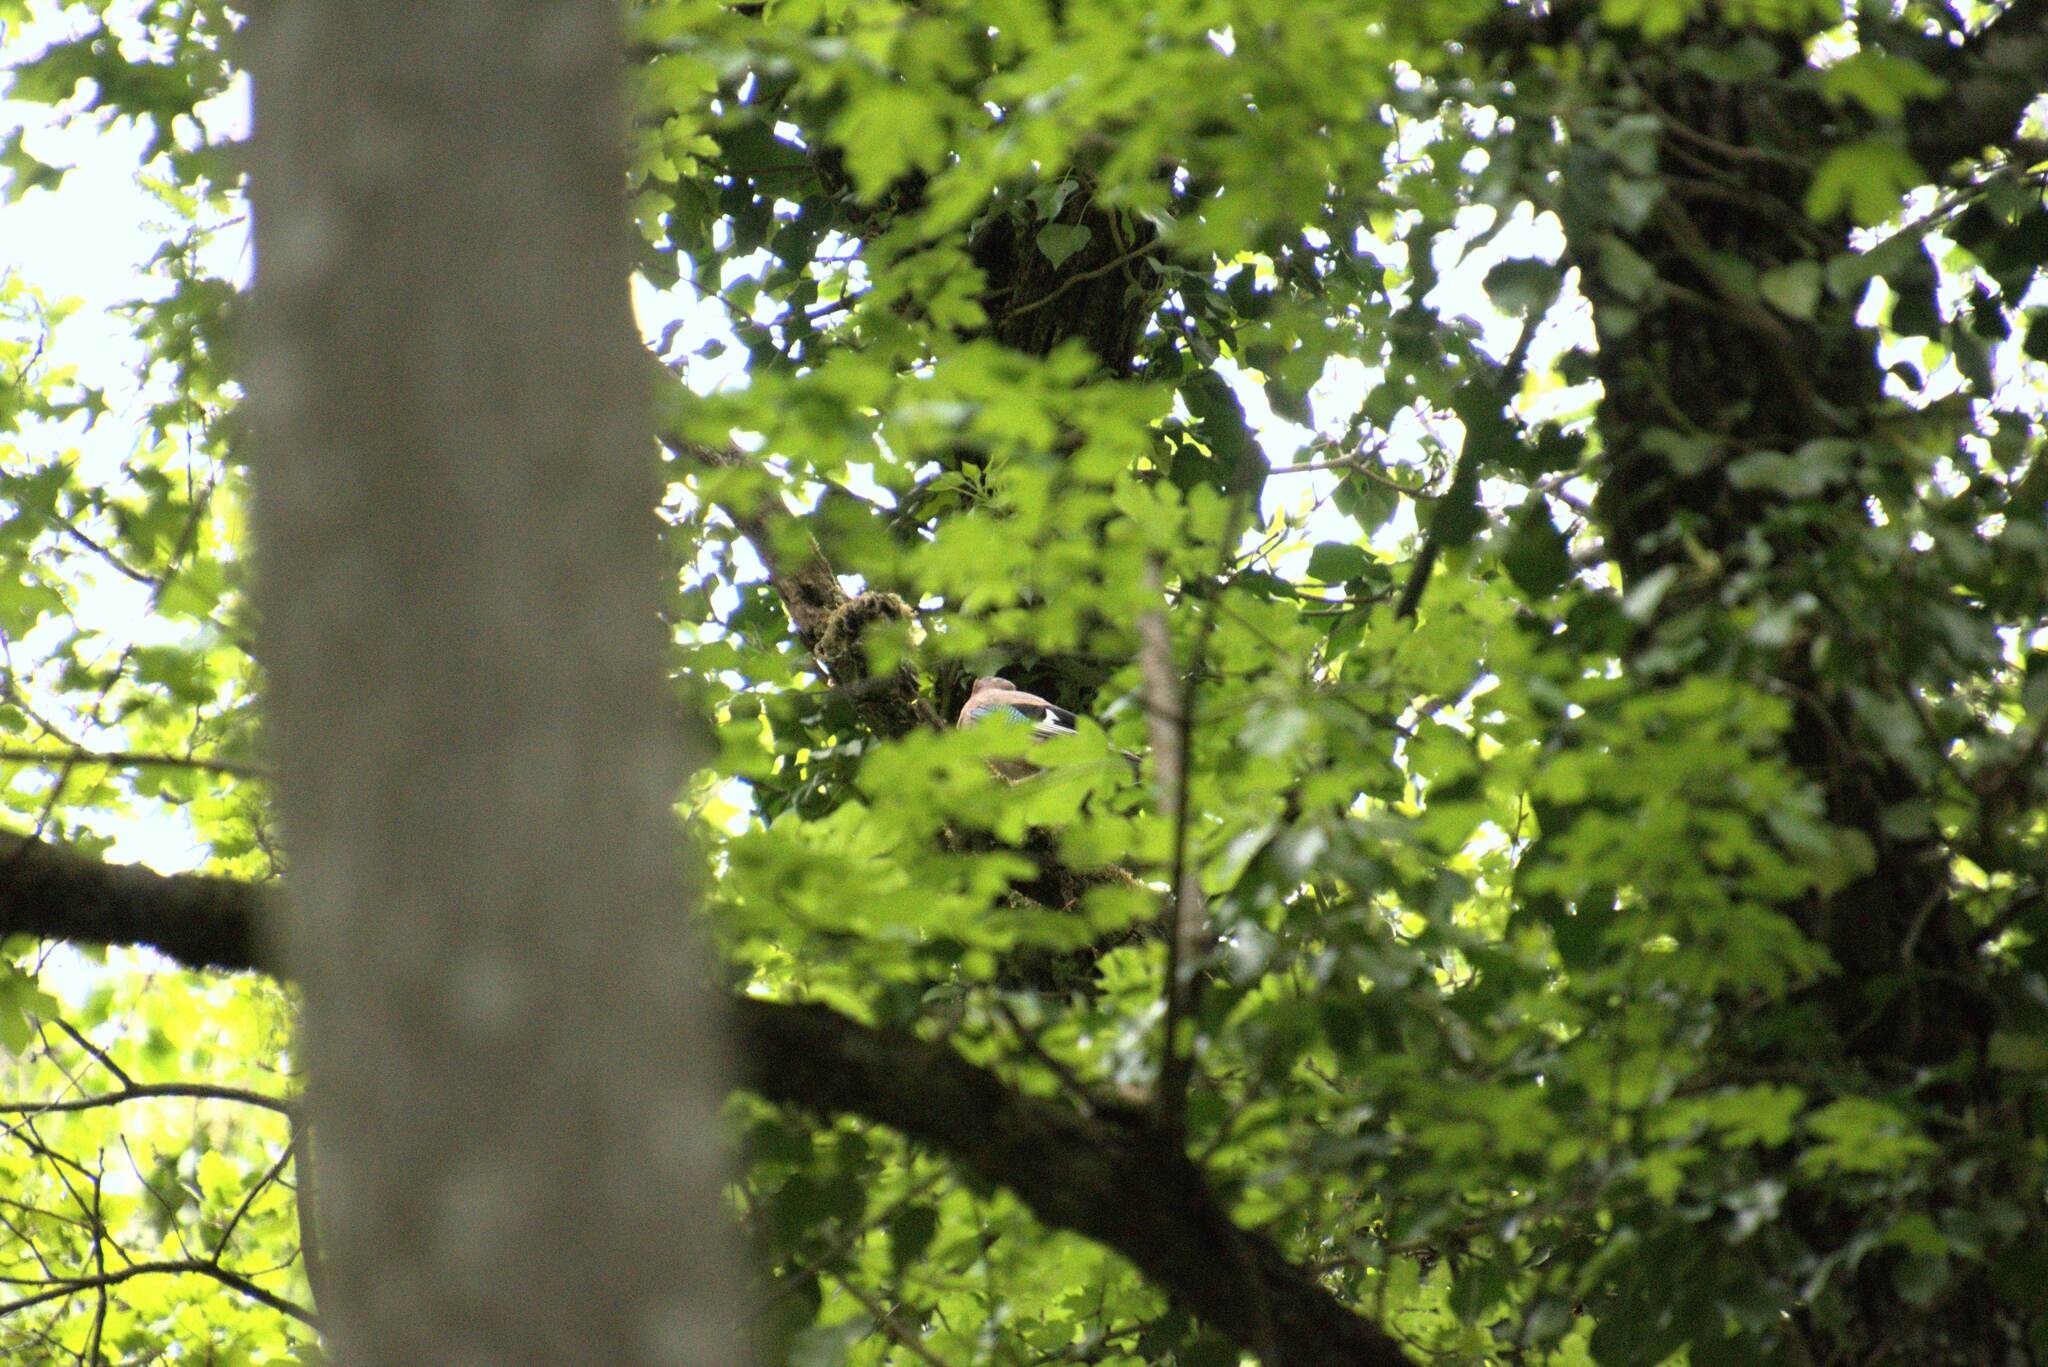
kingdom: Animalia
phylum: Chordata
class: Aves
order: Passeriformes
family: Corvidae
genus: Garrulus
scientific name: Garrulus glandarius
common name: Eurasian jay
